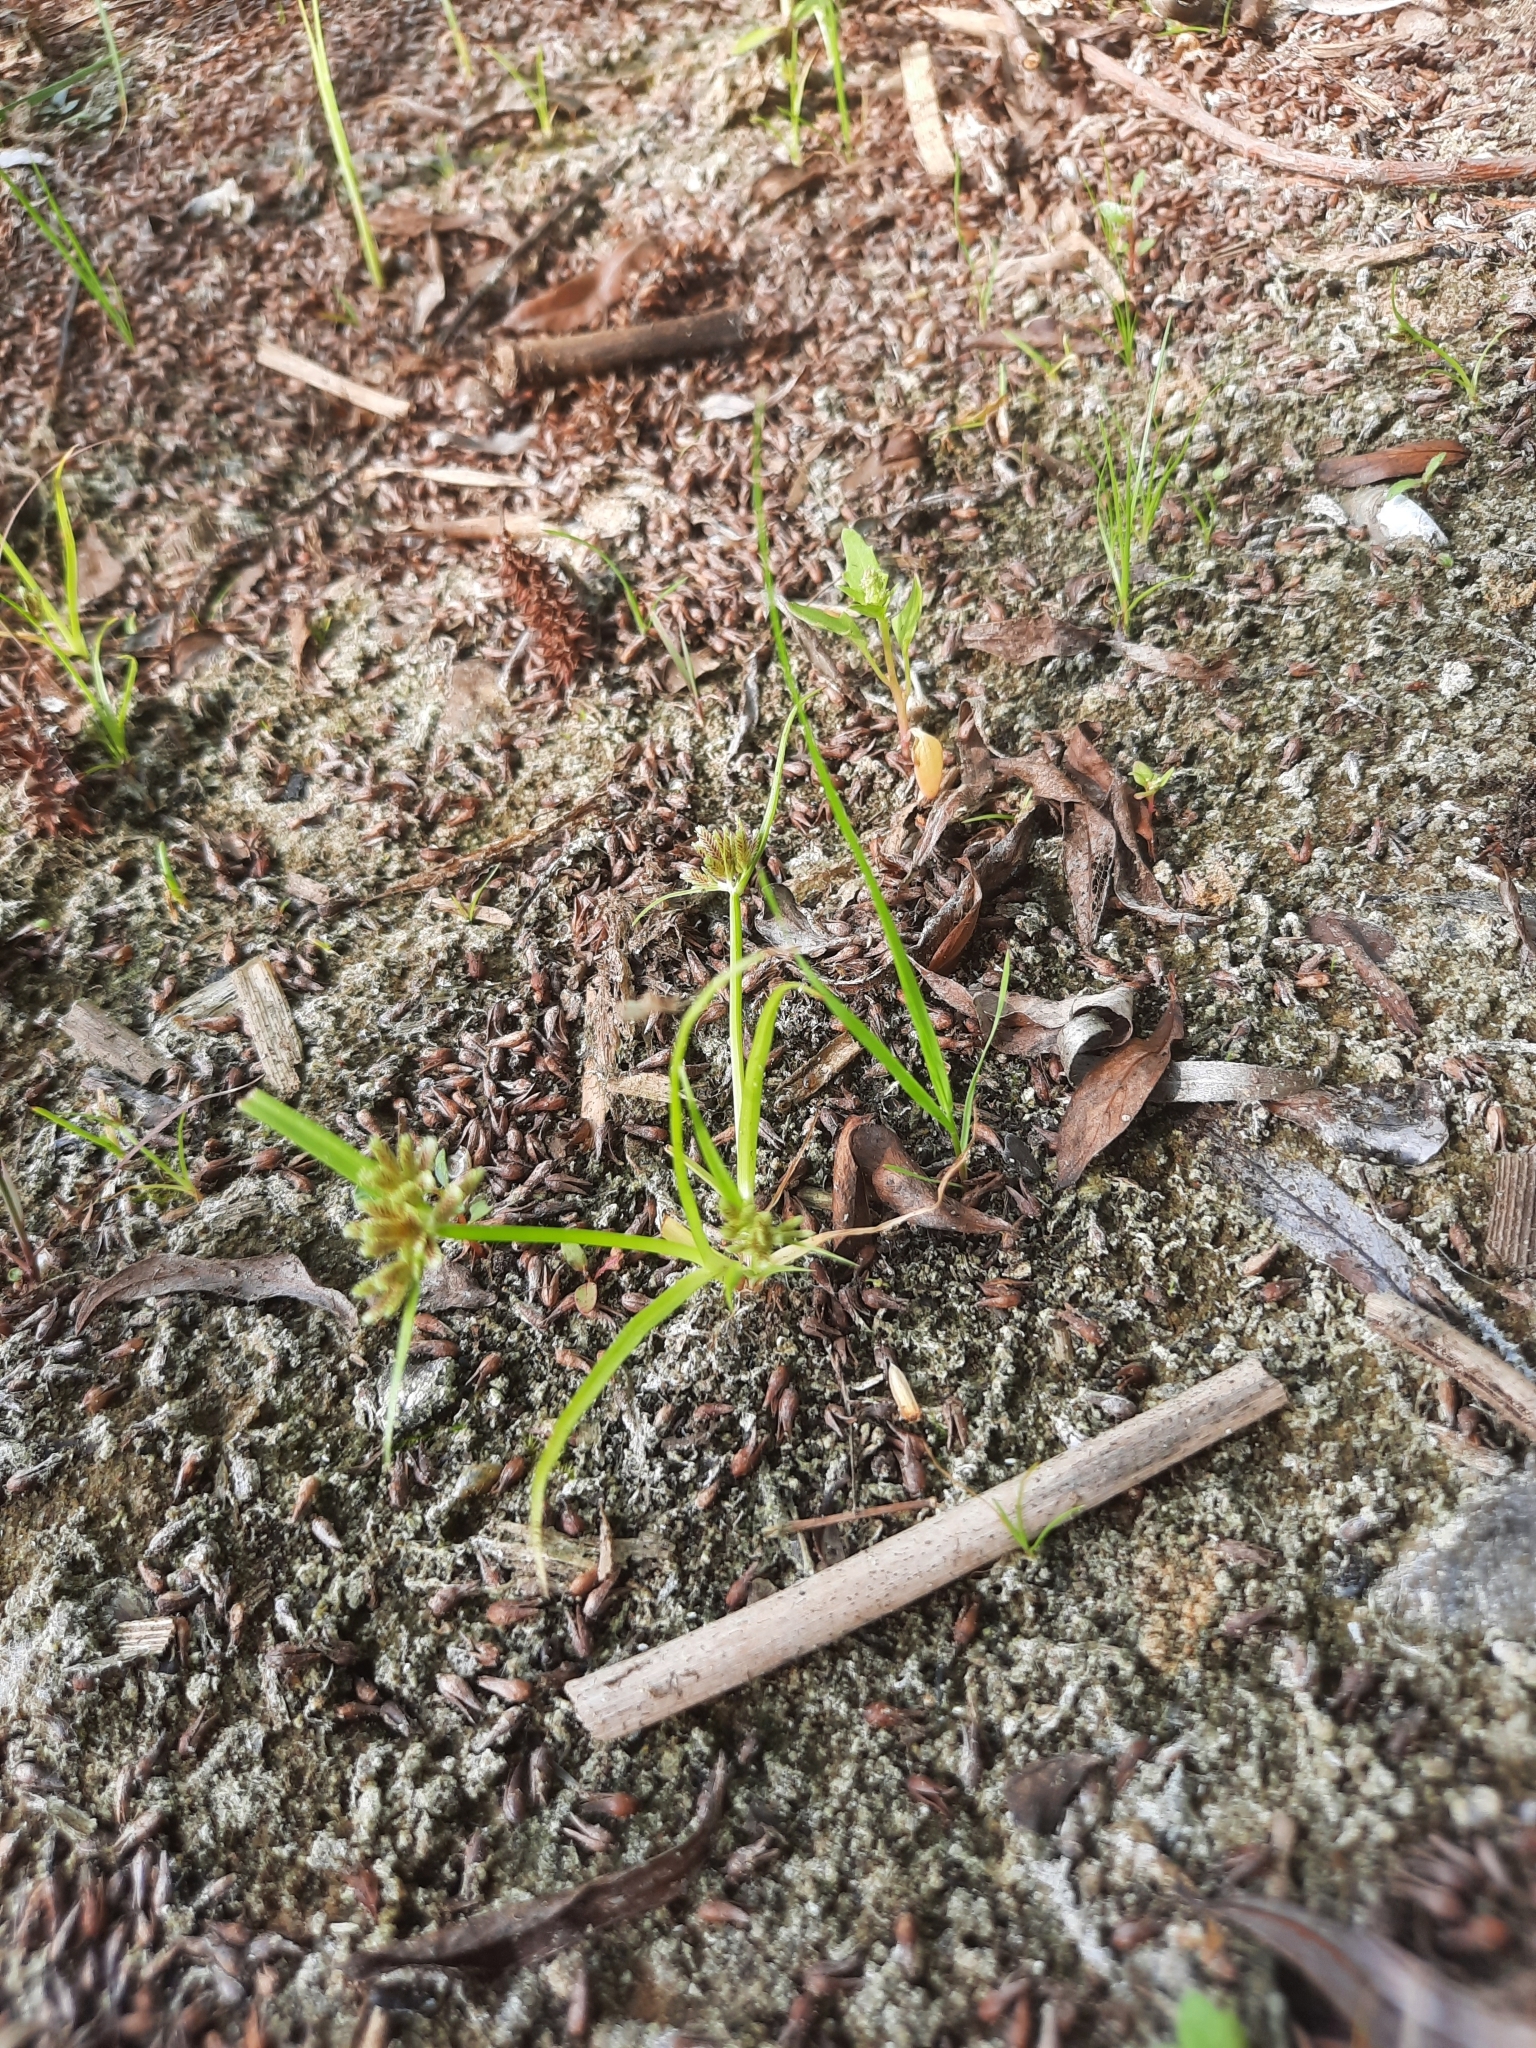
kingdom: Plantae
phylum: Tracheophyta
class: Liliopsida
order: Poales
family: Cyperaceae
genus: Cyperus
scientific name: Cyperus fuscus
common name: Brown galingale
